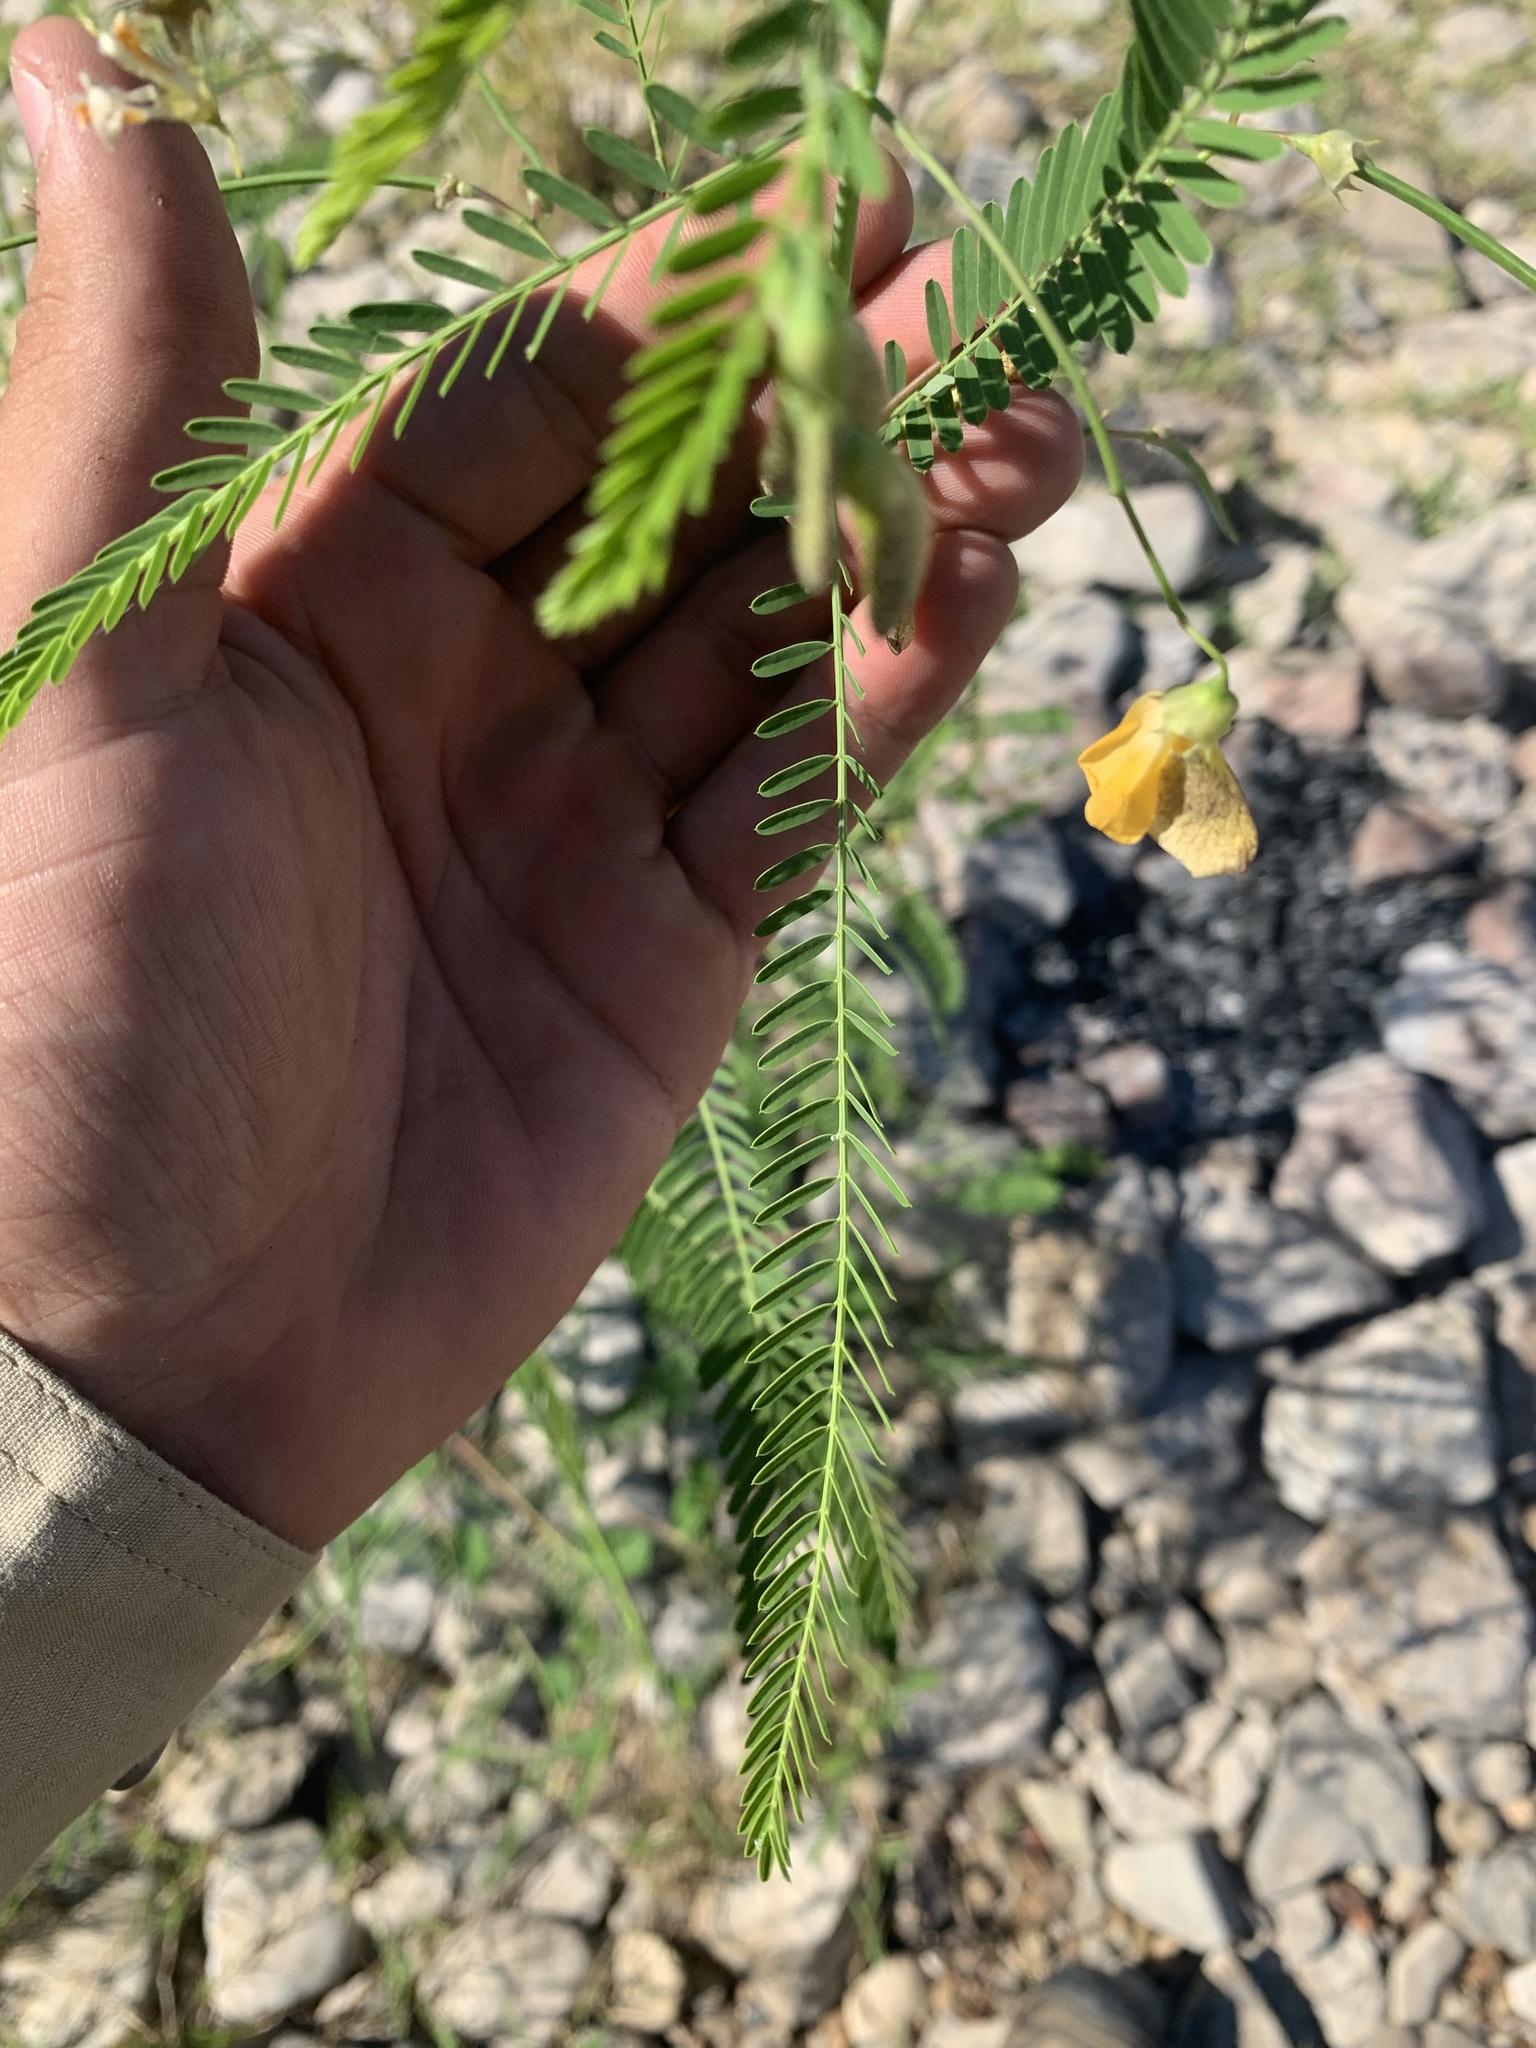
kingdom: Plantae
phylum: Tracheophyta
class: Magnoliopsida
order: Fabales
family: Fabaceae
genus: Sesbania
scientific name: Sesbania herbacea
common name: Bigpod sesbania
